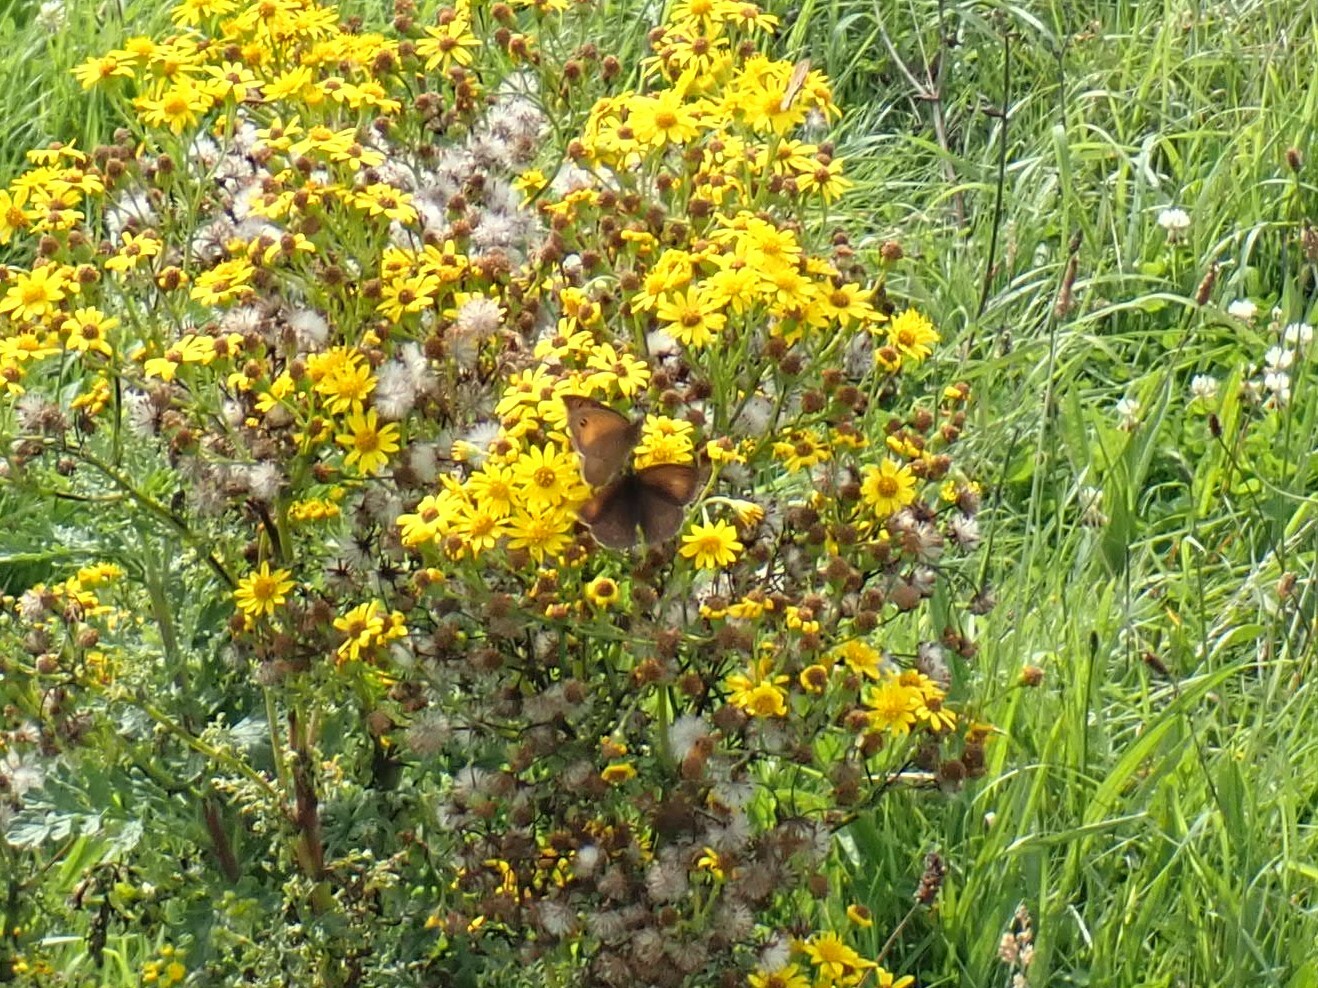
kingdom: Animalia
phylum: Arthropoda
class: Insecta
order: Lepidoptera
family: Nymphalidae
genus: Maniola
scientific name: Maniola jurtina
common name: Meadow brown
